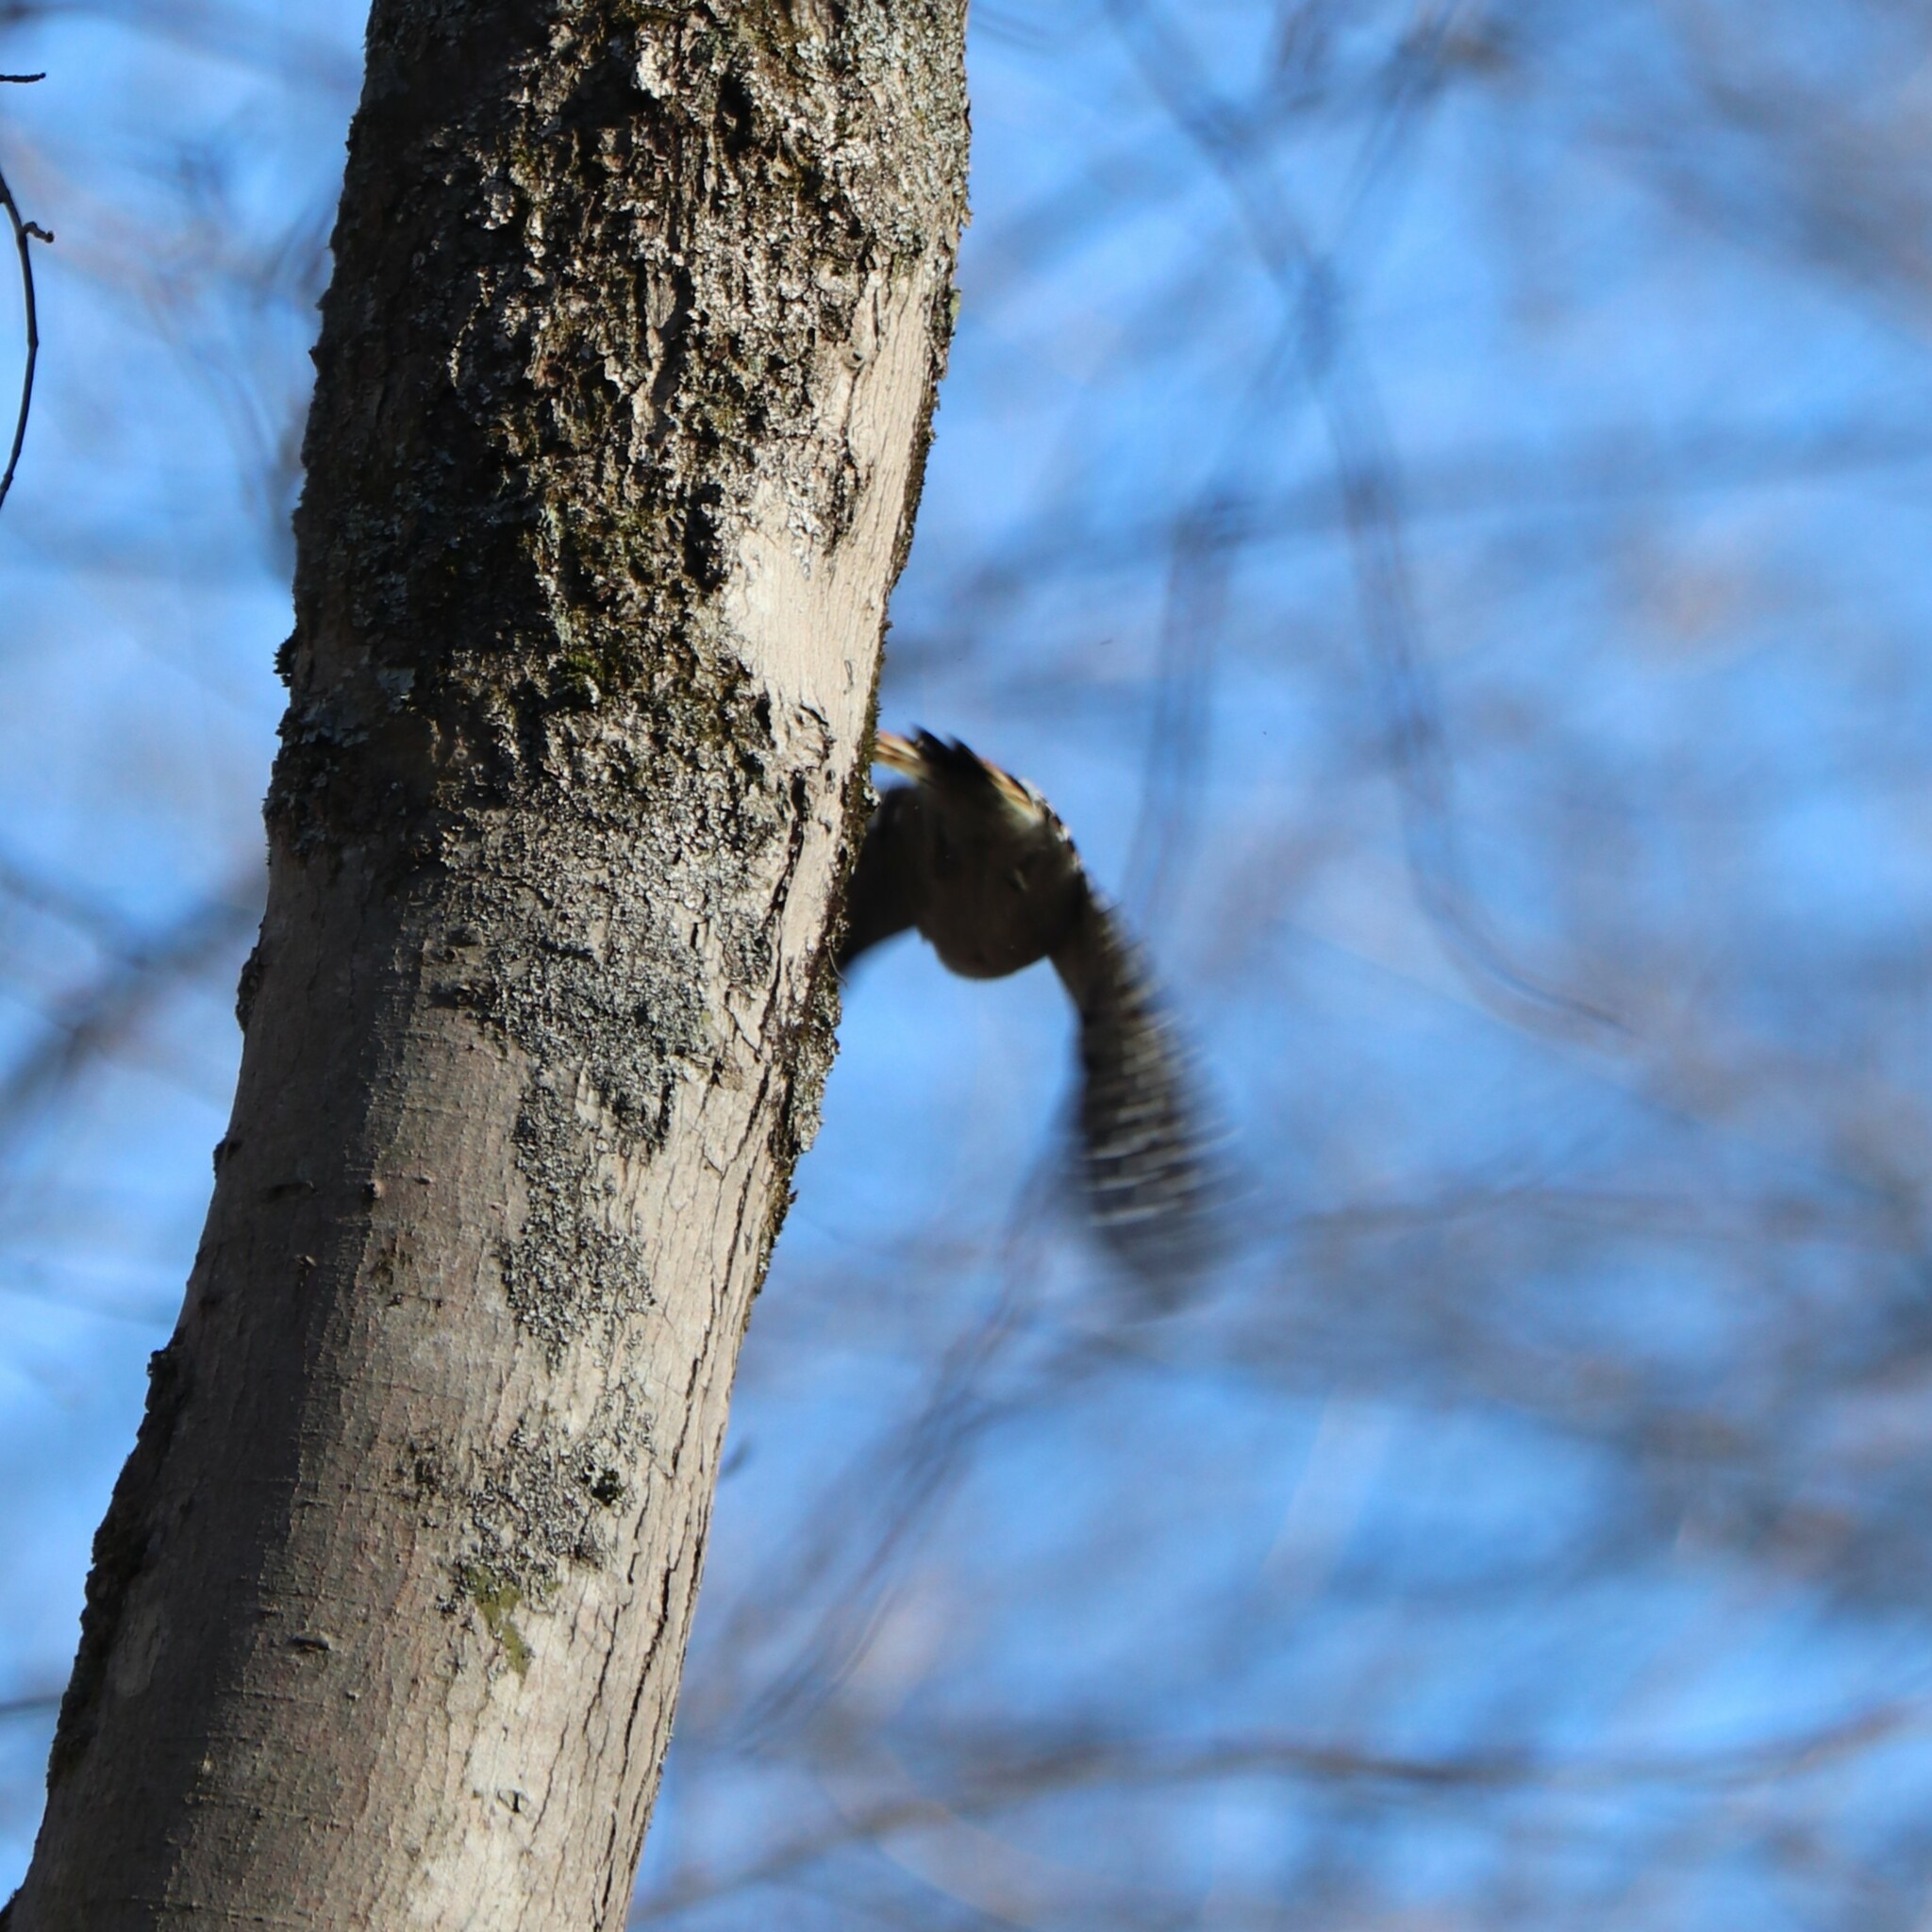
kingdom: Animalia
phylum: Chordata
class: Aves
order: Piciformes
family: Picidae
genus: Dryobates
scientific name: Dryobates pubescens
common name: Downy woodpecker
